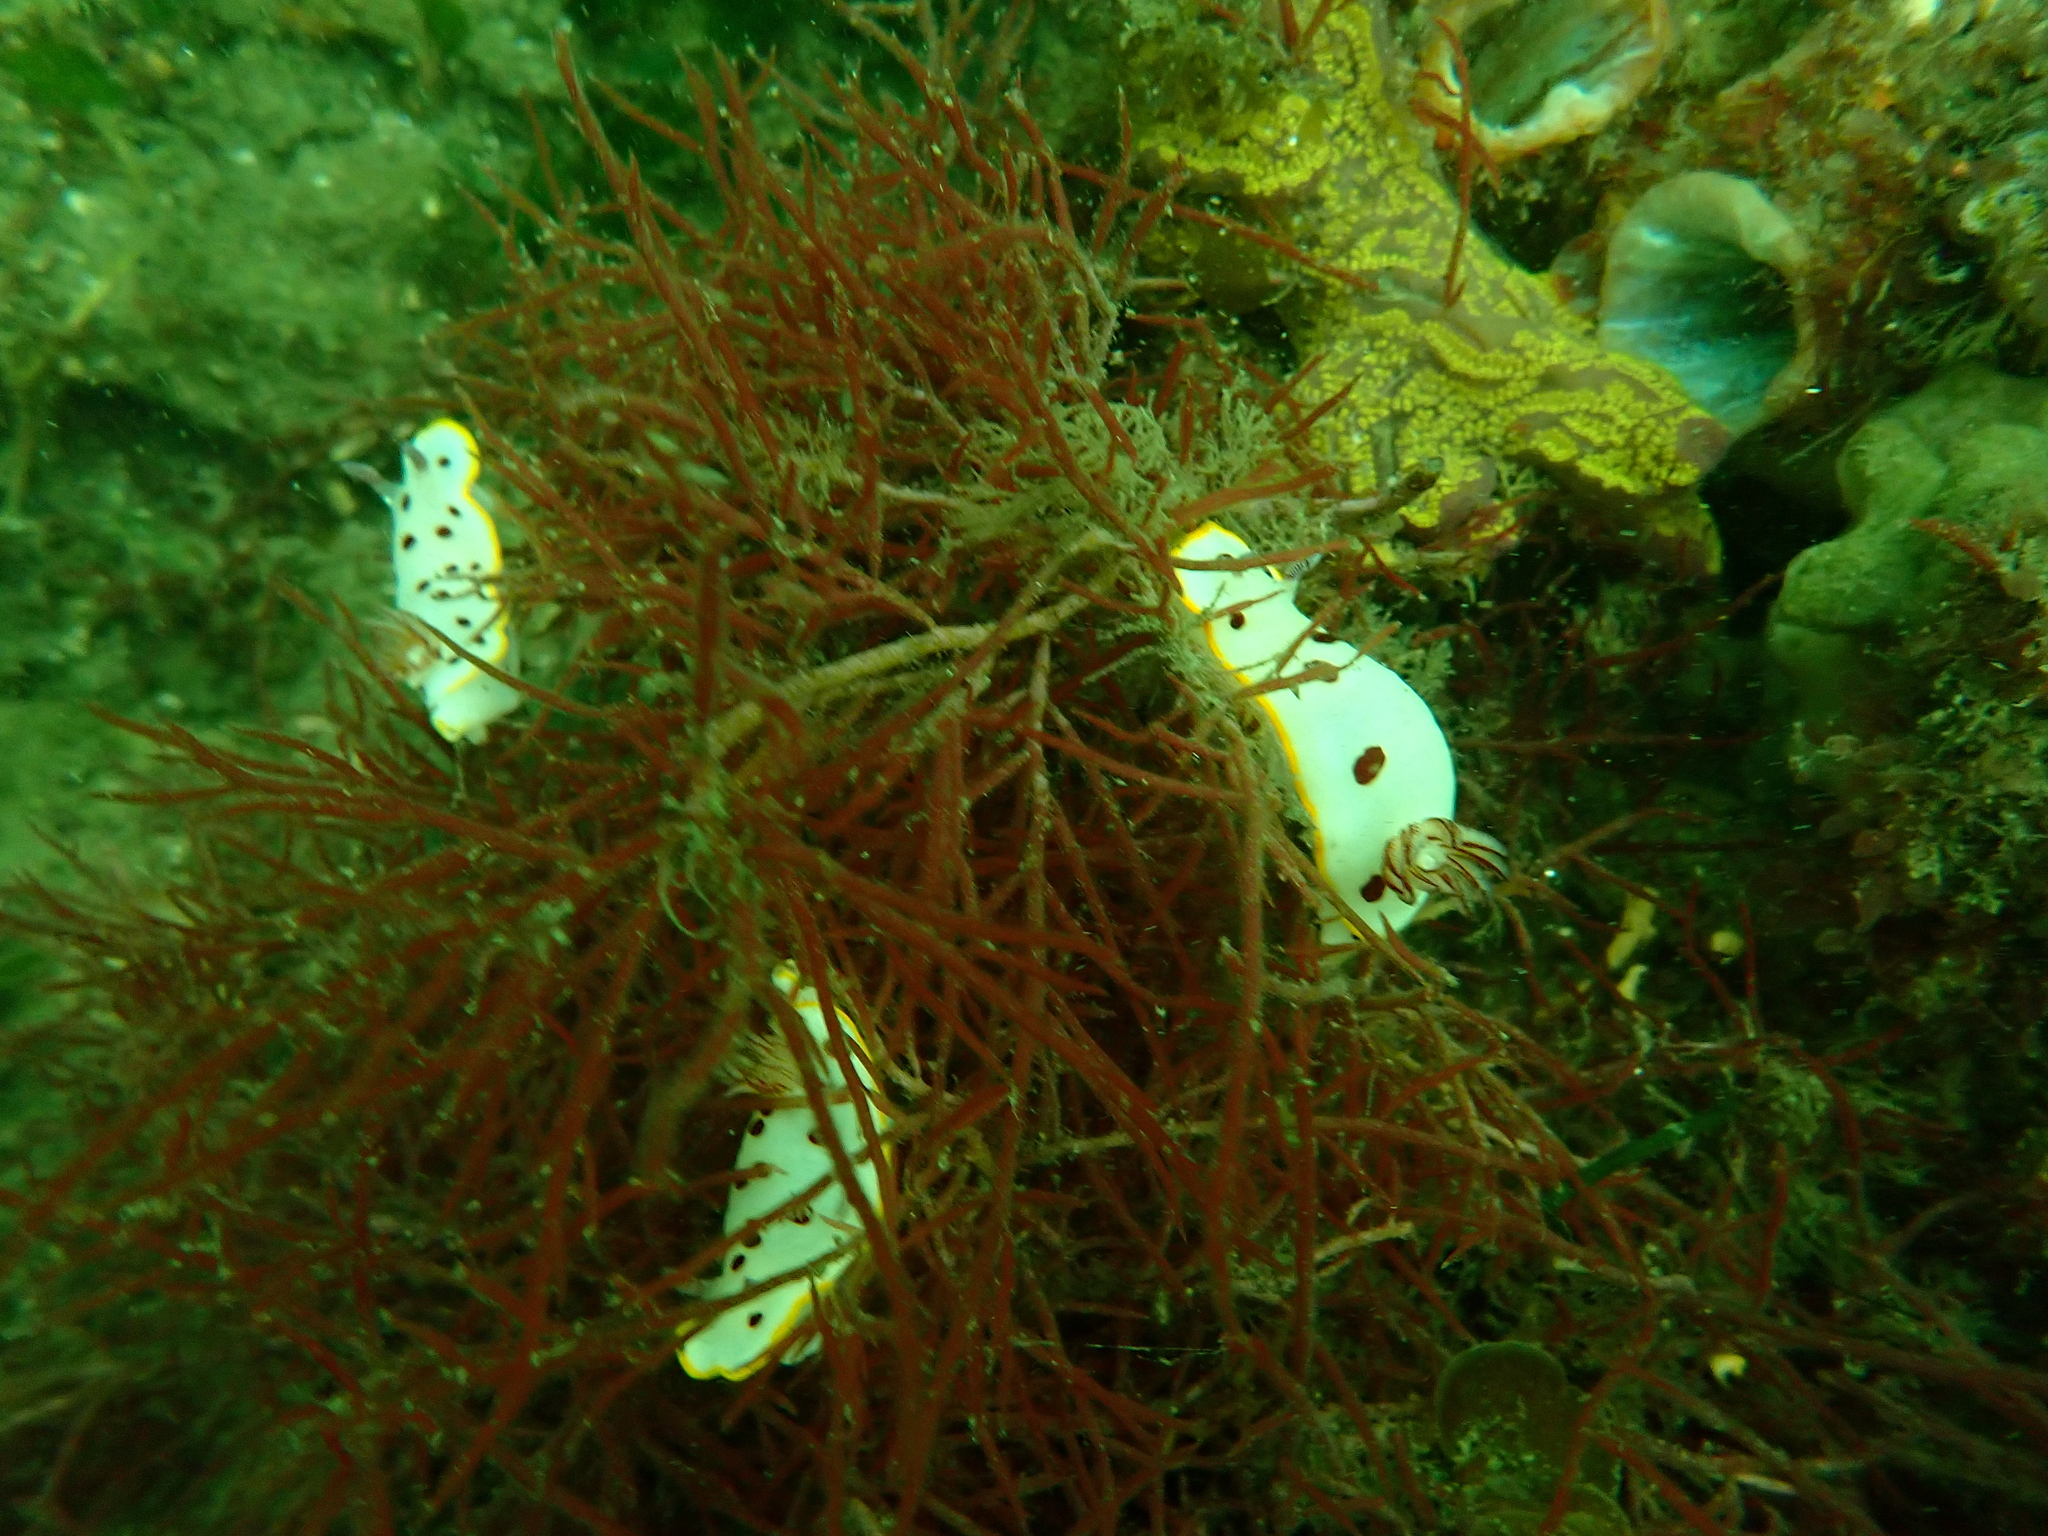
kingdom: Animalia
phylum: Mollusca
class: Gastropoda
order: Nudibranchia
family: Chromodorididae
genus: Goniobranchus
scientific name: Goniobranchus splendidus
